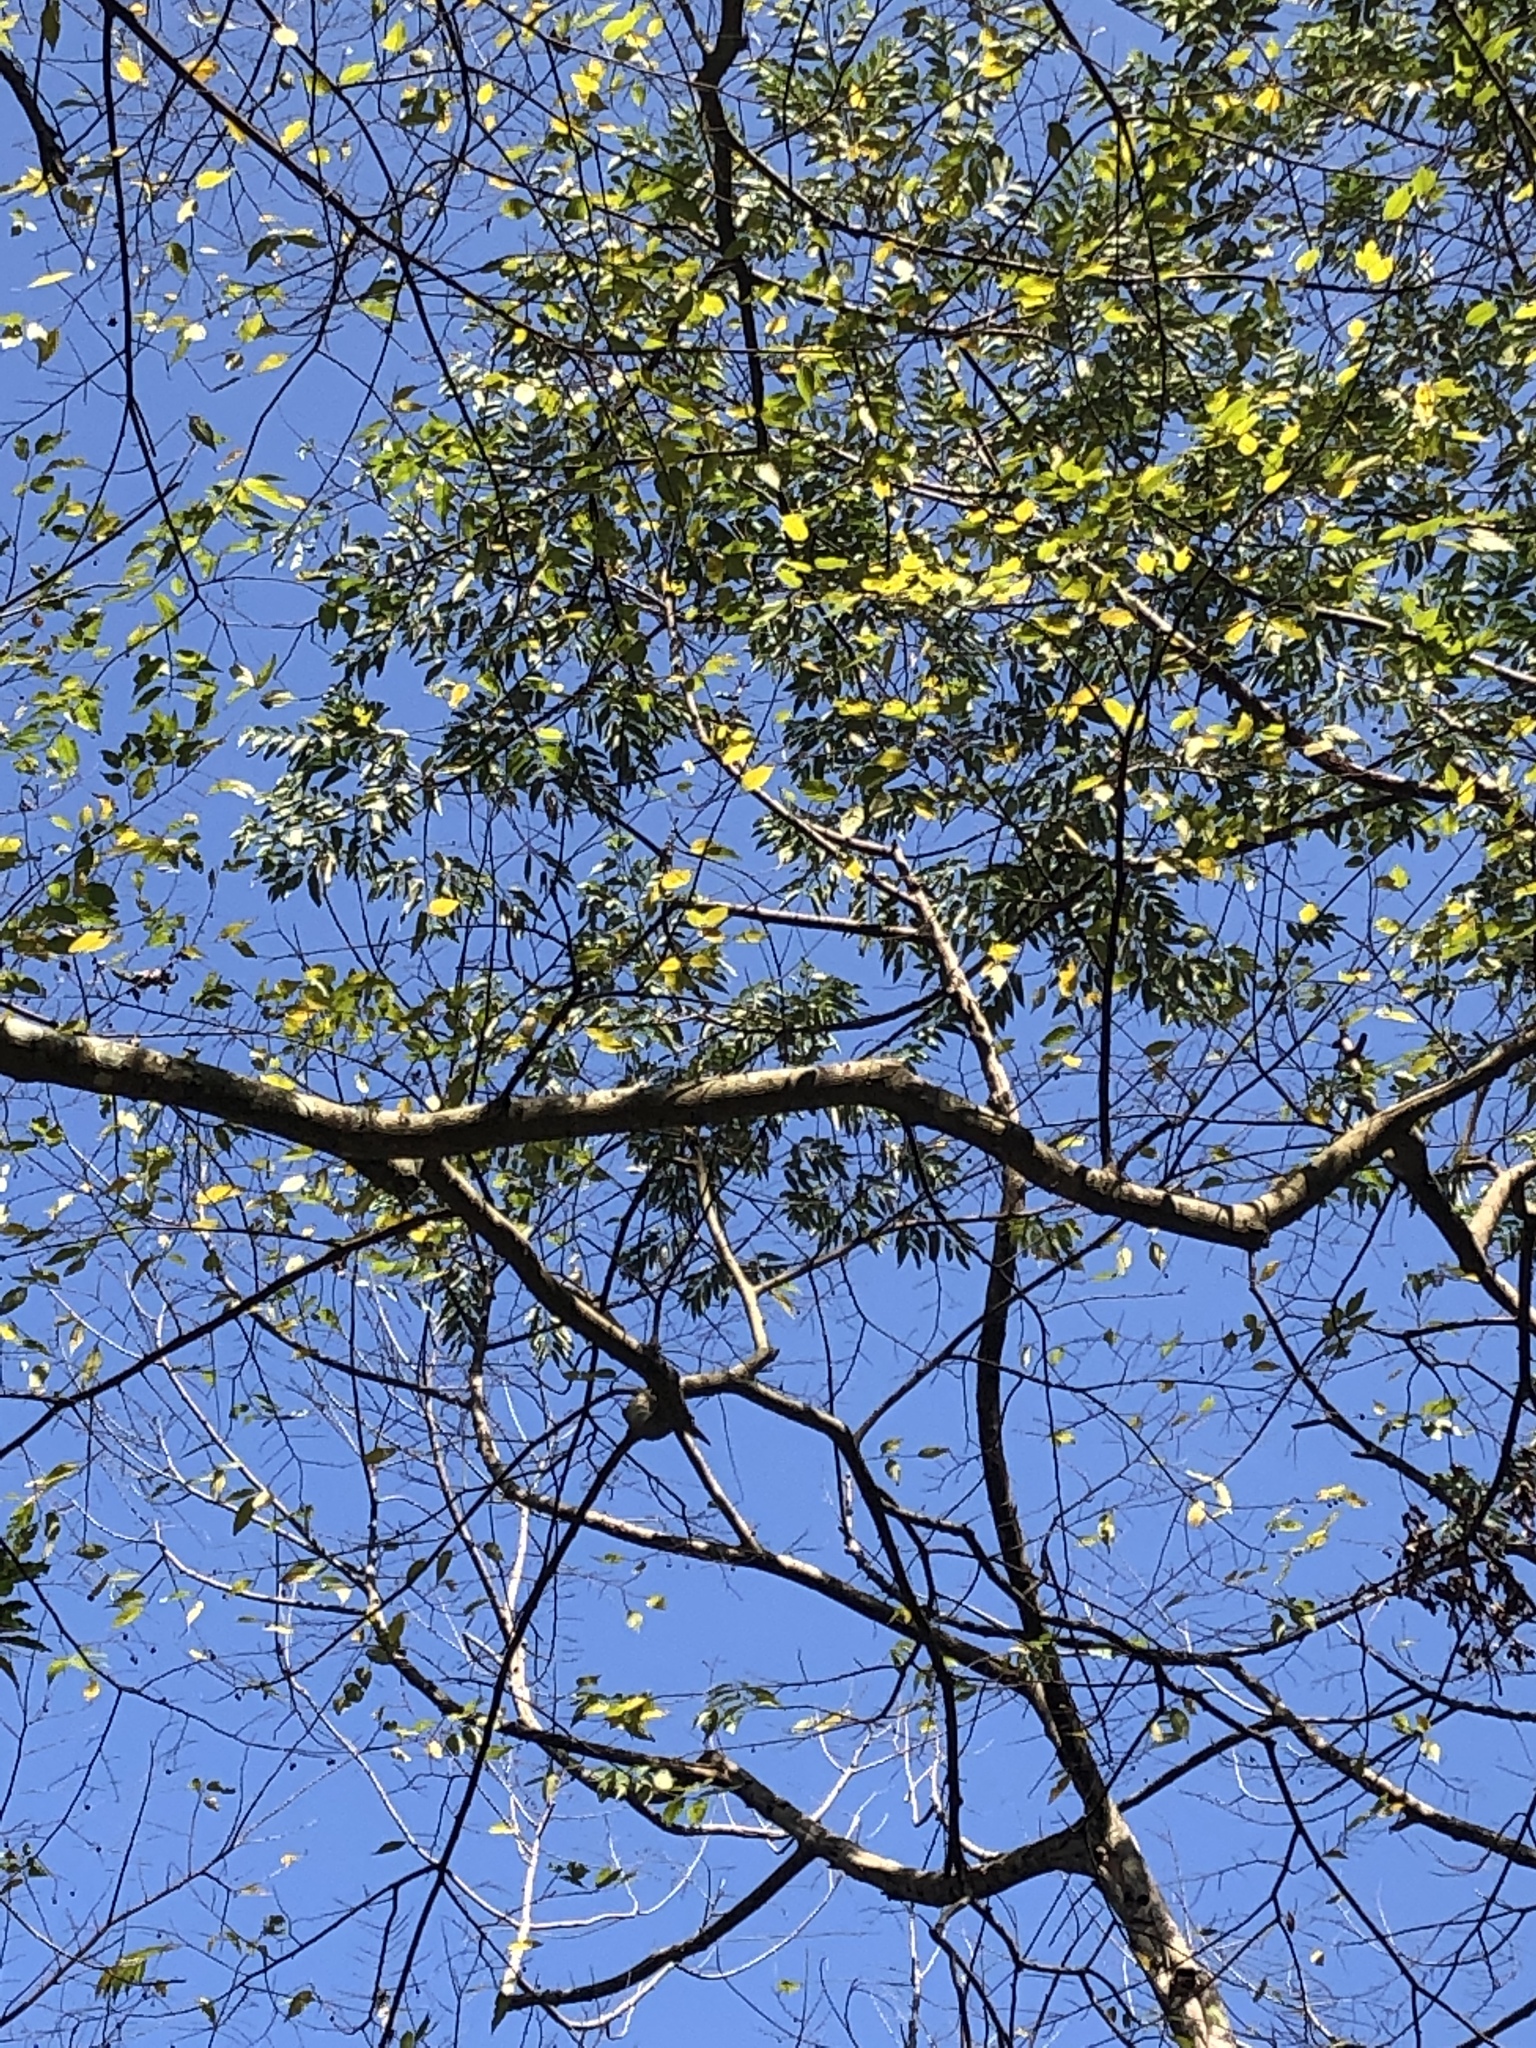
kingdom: Plantae
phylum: Tracheophyta
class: Magnoliopsida
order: Rosales
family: Cannabaceae
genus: Trema
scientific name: Trema orientale
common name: Indian charcoal tree
